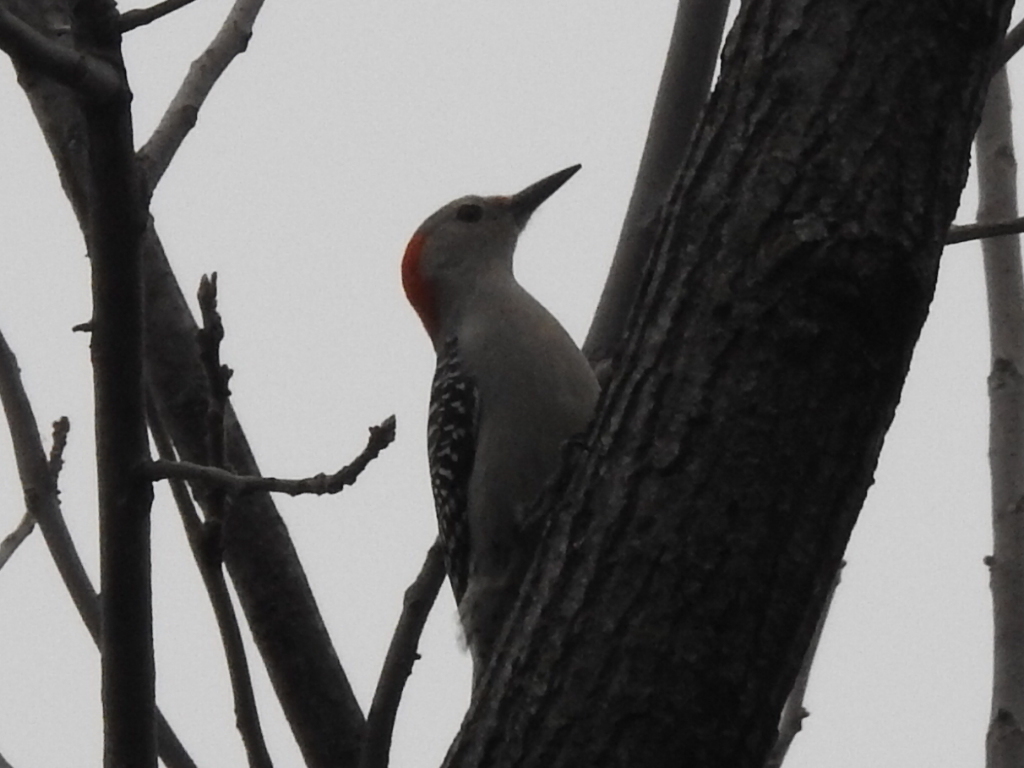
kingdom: Animalia
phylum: Chordata
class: Aves
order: Piciformes
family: Picidae
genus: Melanerpes
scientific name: Melanerpes carolinus
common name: Red-bellied woodpecker
